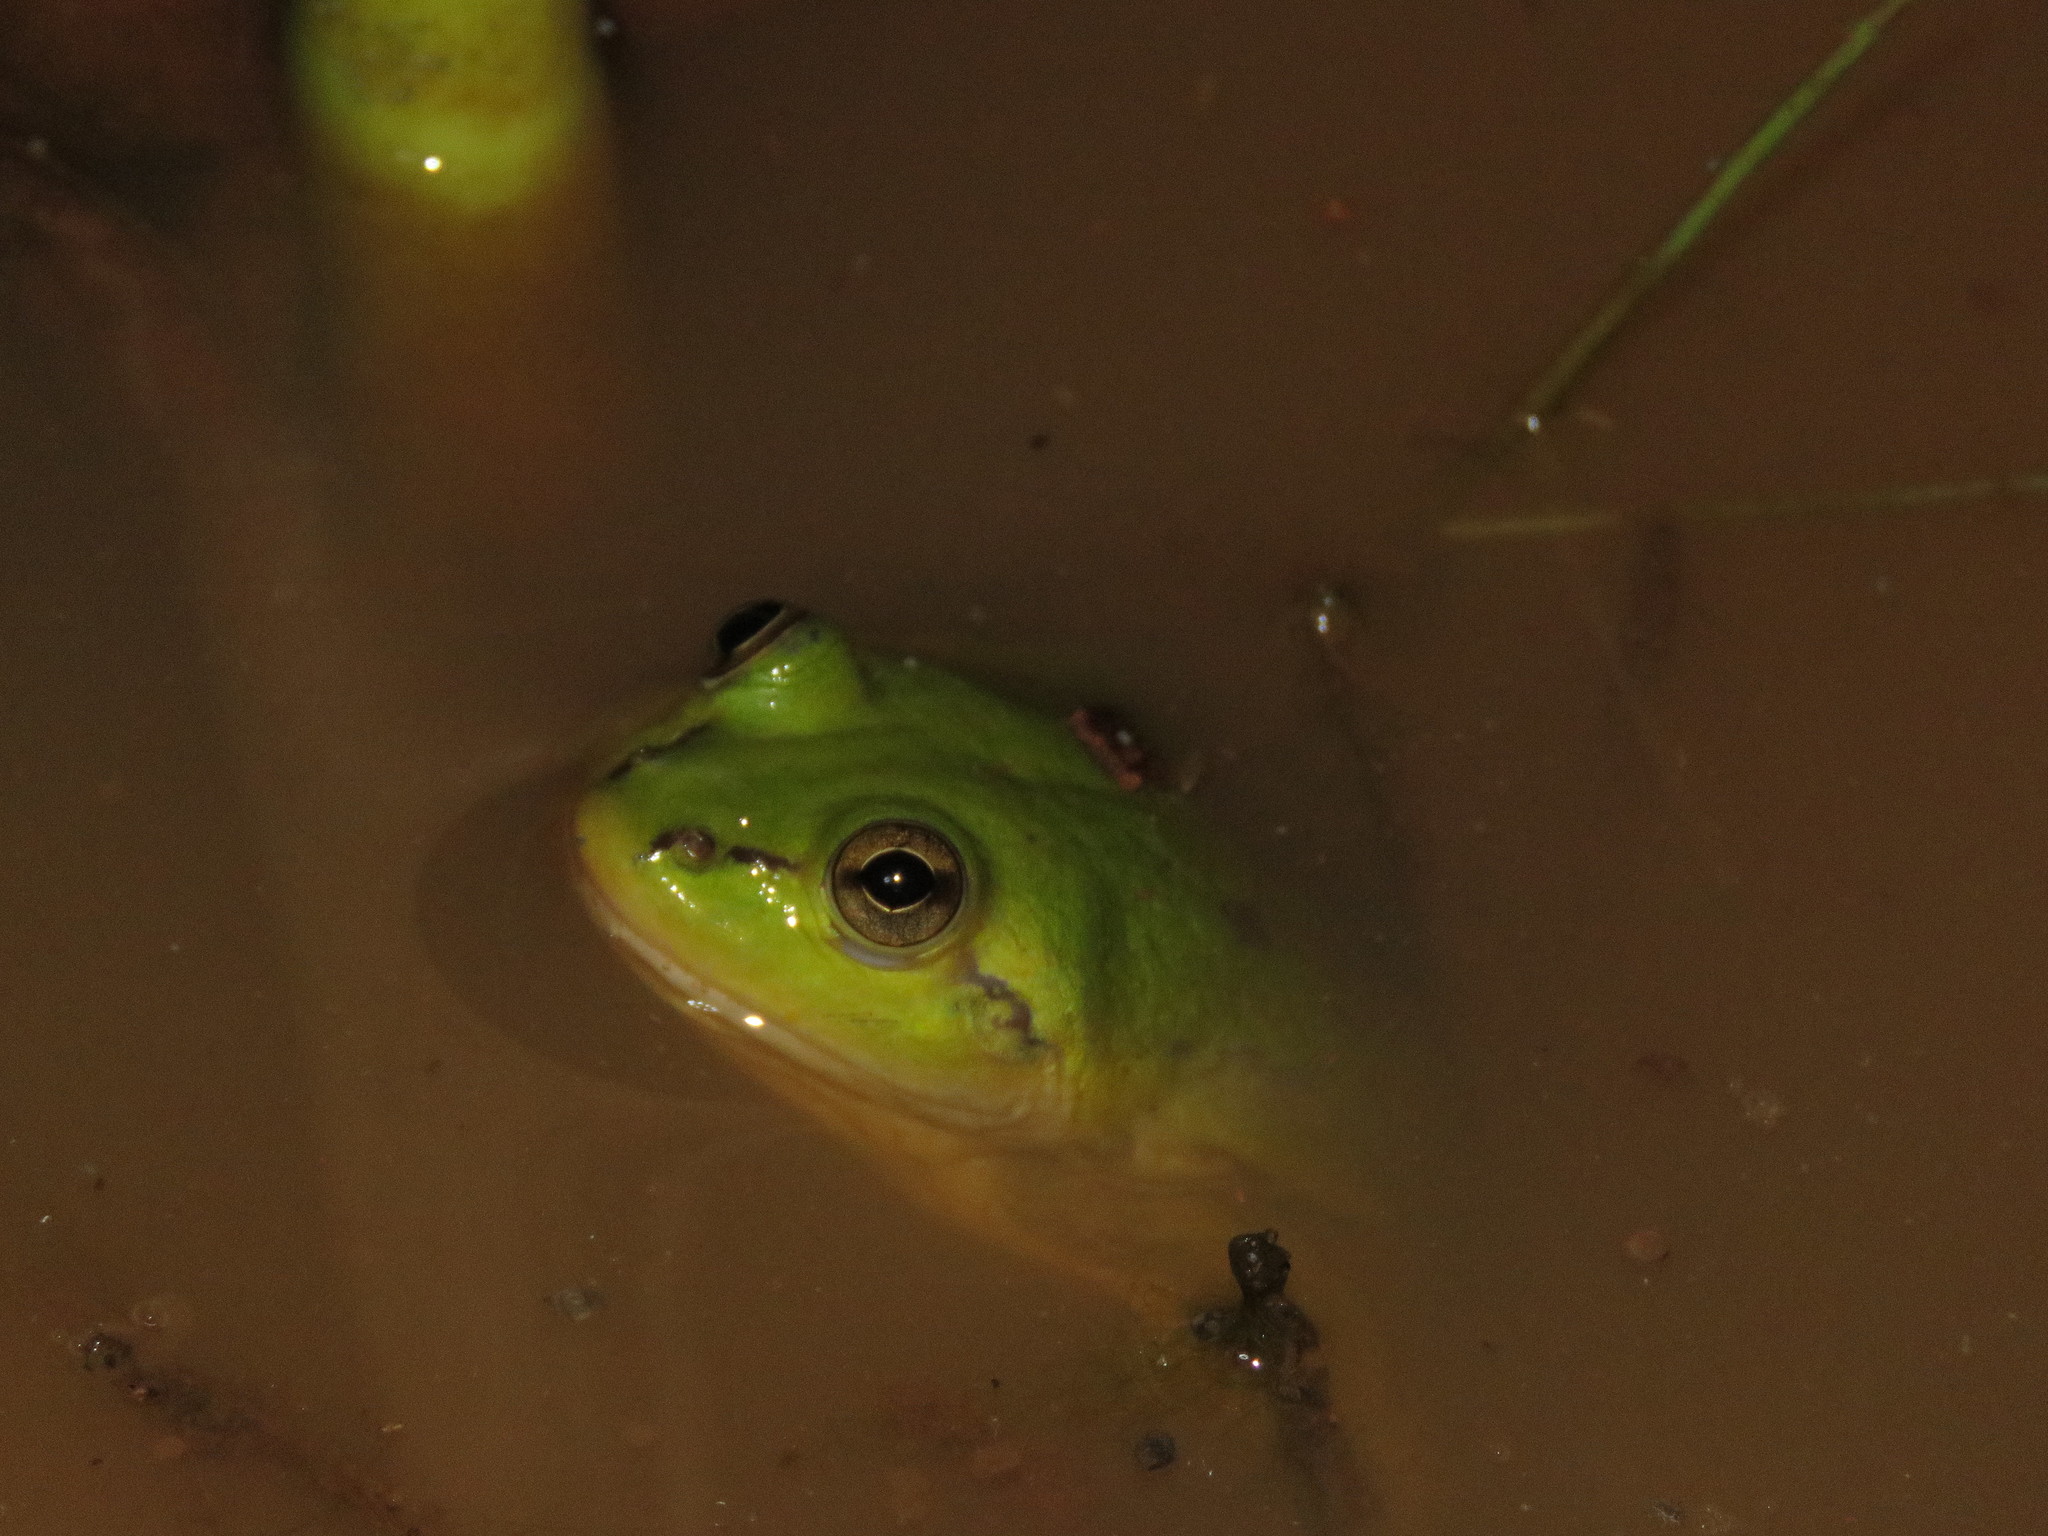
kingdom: Animalia
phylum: Chordata
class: Amphibia
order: Anura
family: Hylidae
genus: Pseudis
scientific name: Pseudis paradoxa
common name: Swimming frog
